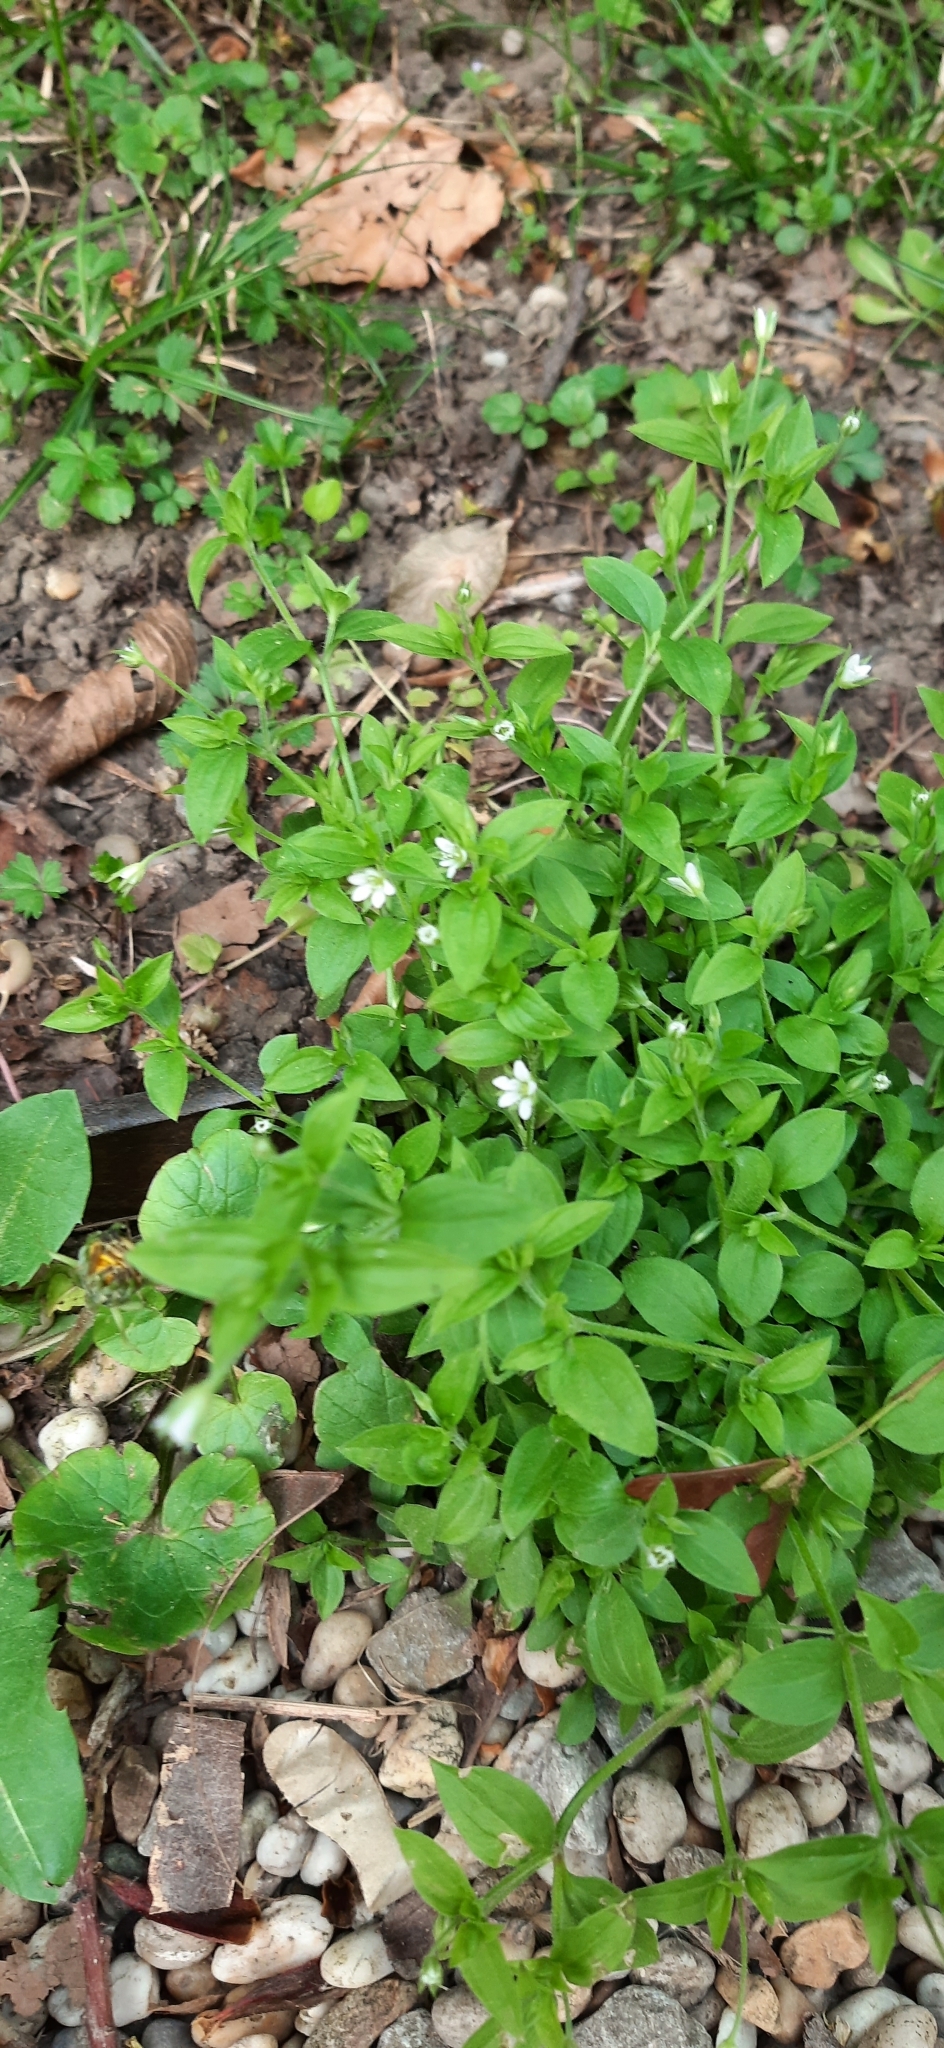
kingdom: Plantae
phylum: Tracheophyta
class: Magnoliopsida
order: Caryophyllales
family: Caryophyllaceae
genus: Moehringia
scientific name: Moehringia trinervia
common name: Three-nerved sandwort
